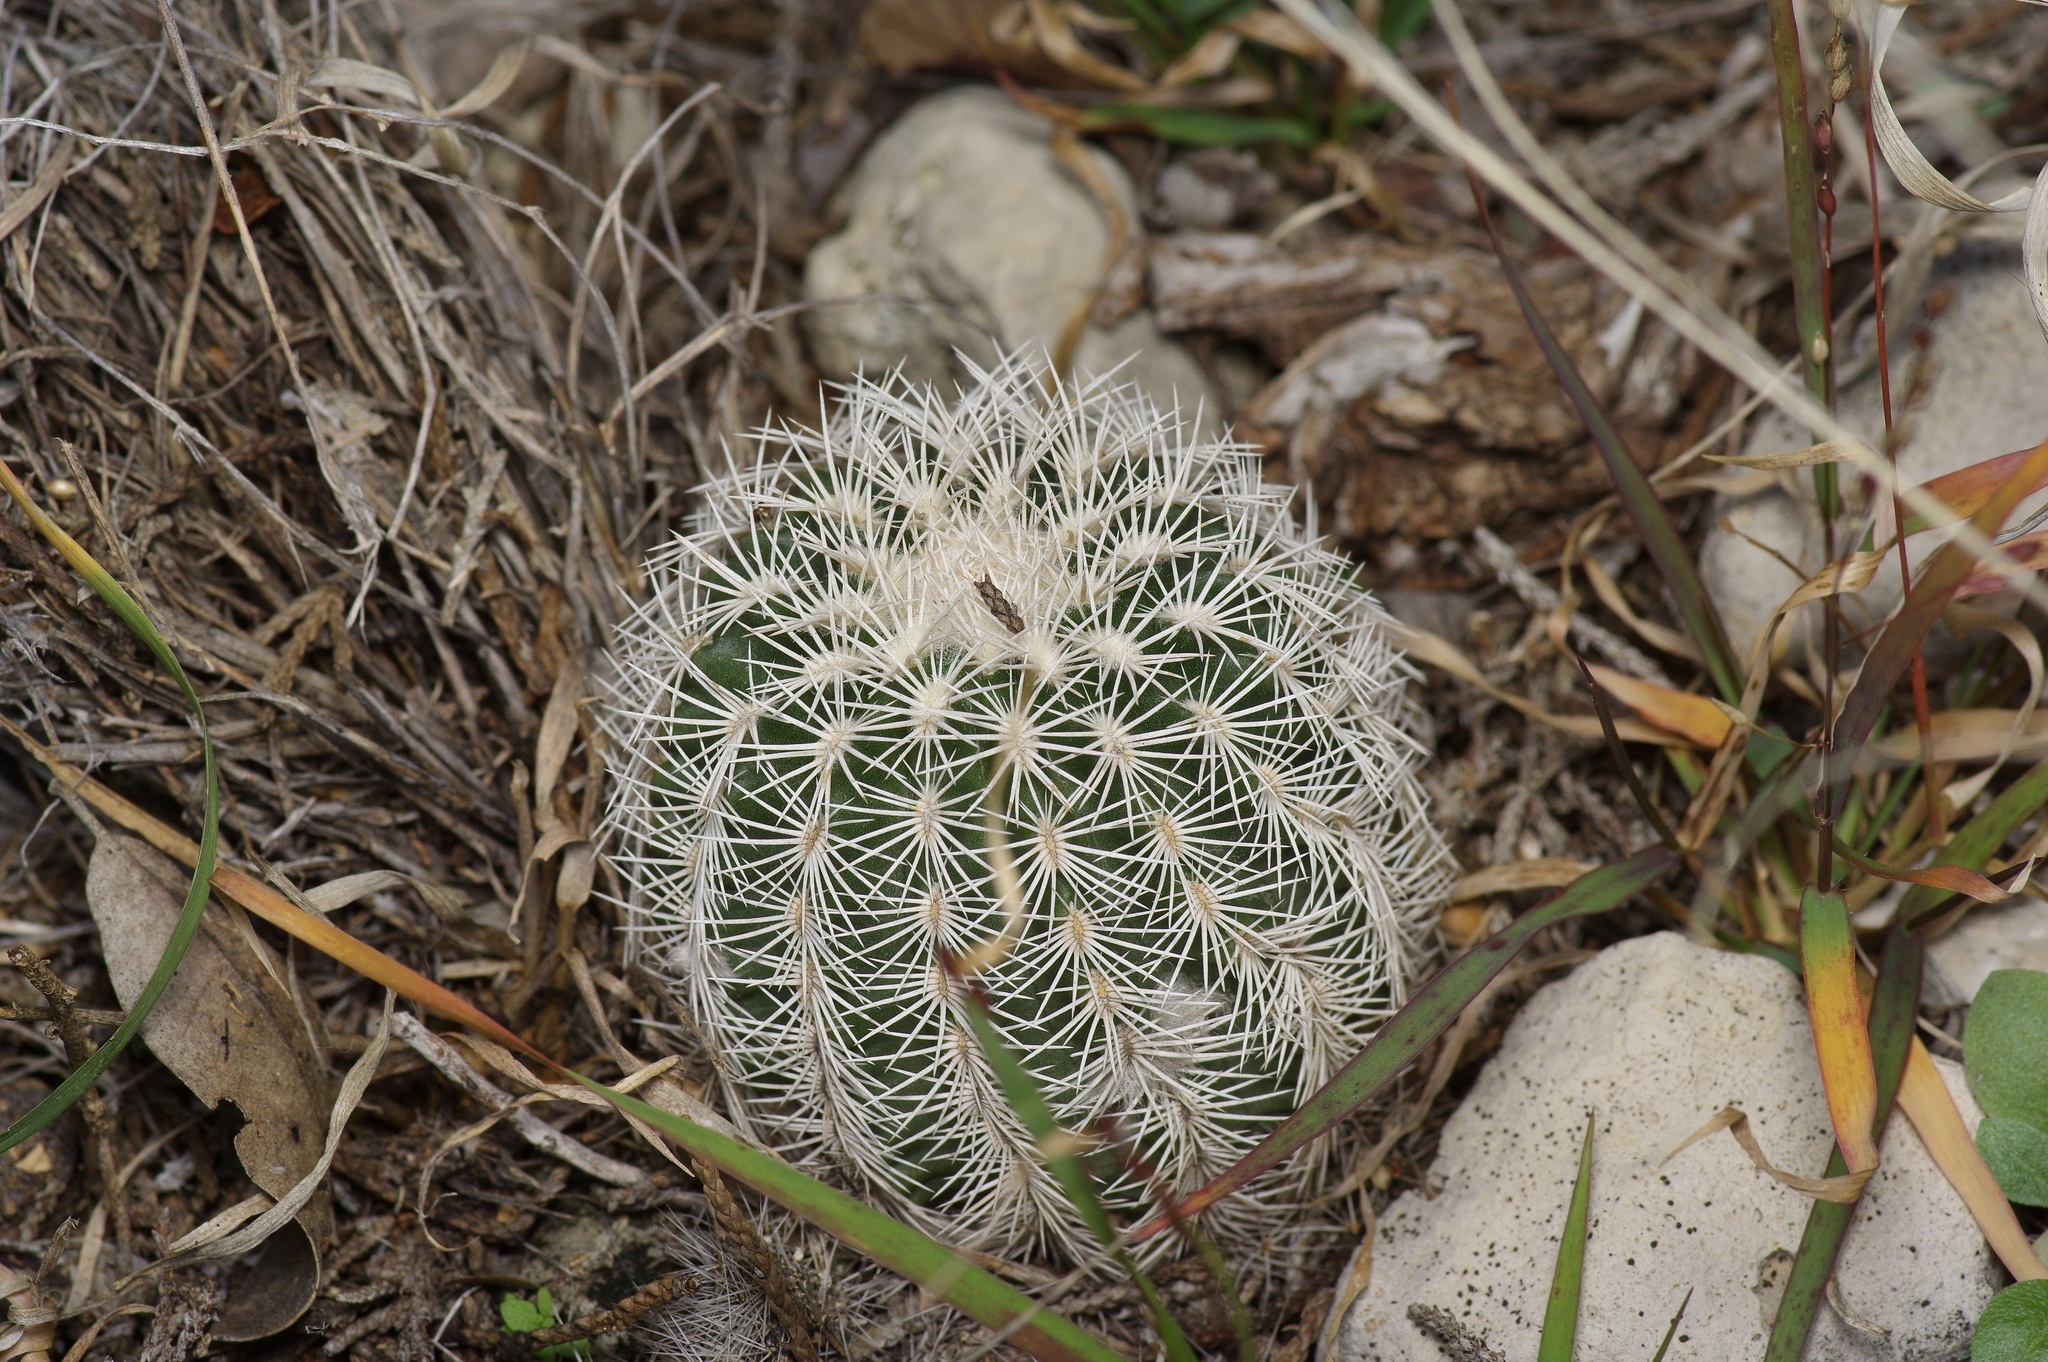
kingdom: Plantae
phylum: Tracheophyta
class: Magnoliopsida
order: Caryophyllales
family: Cactaceae
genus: Echinocereus
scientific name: Echinocereus reichenbachii
